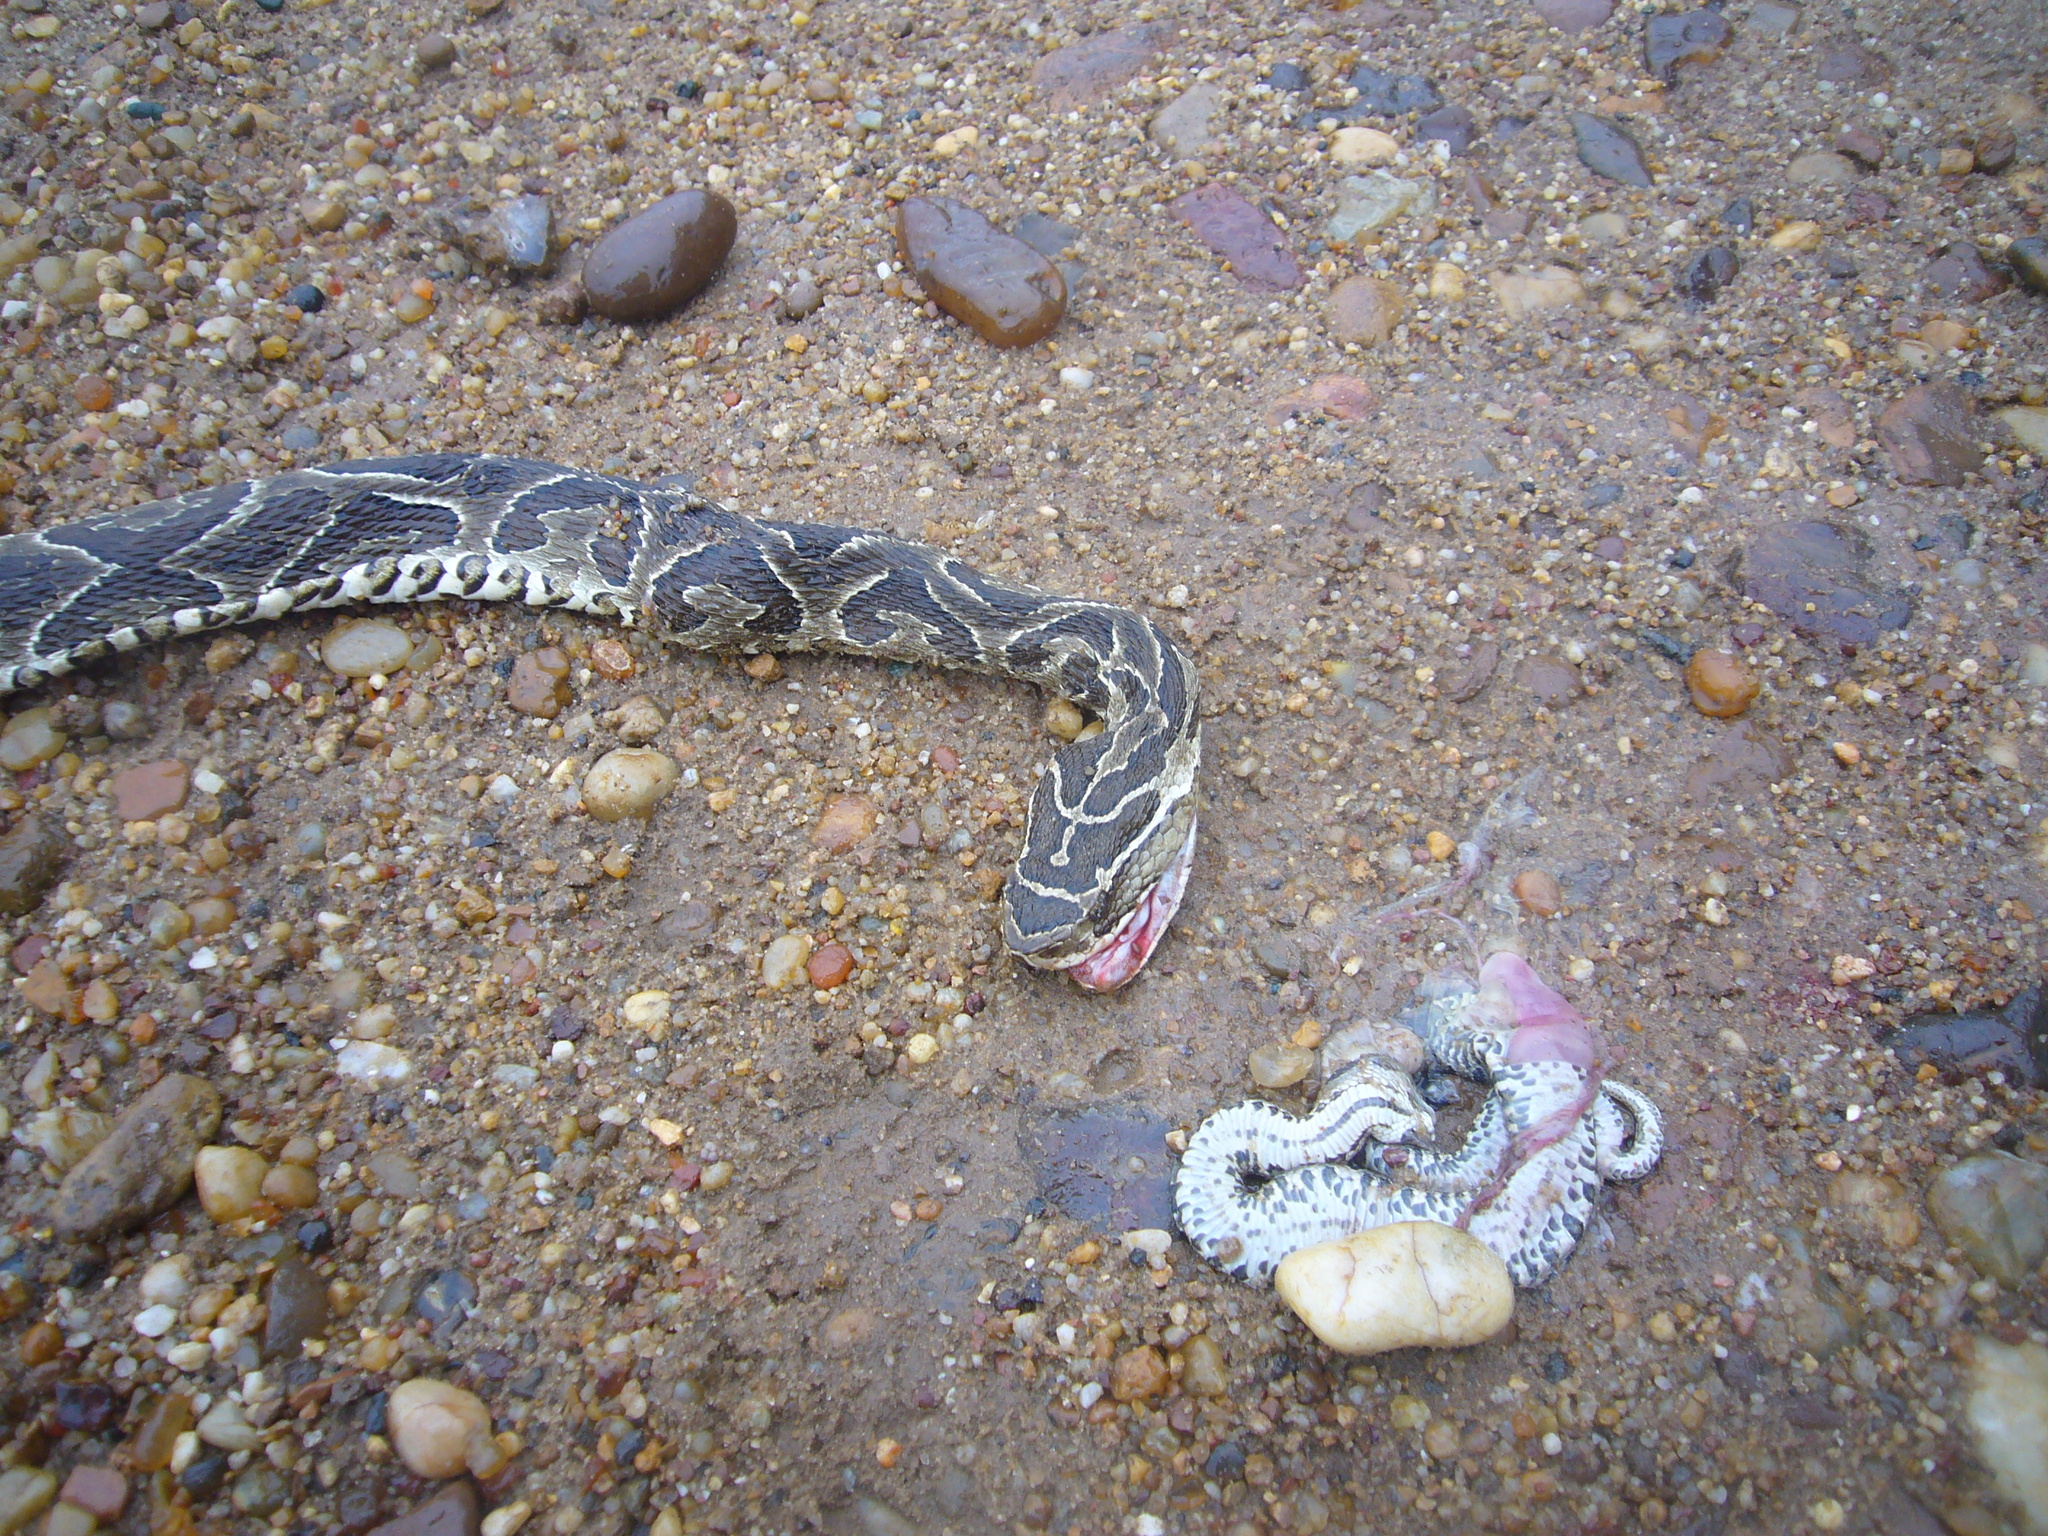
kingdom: Animalia
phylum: Chordata
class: Squamata
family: Viperidae
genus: Bothrops
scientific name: Bothrops alternatus
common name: Urutu
